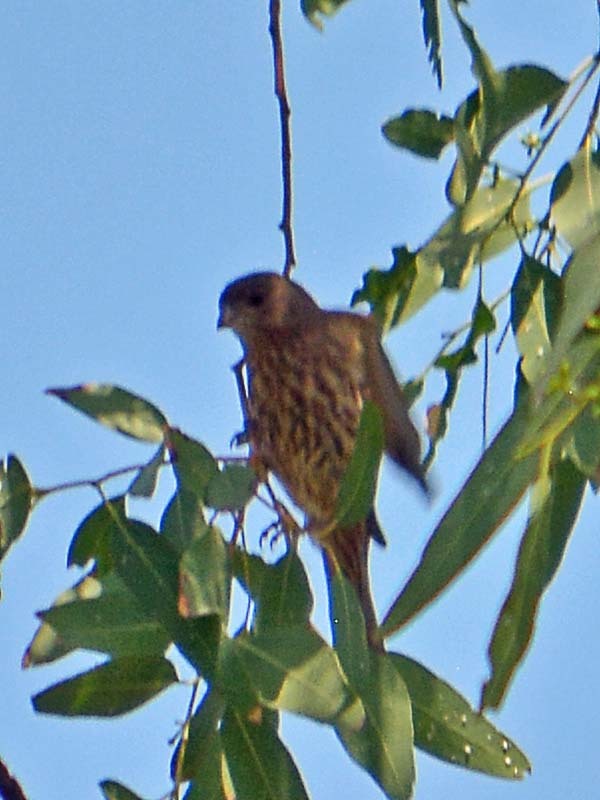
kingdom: Animalia
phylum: Chordata
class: Aves
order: Passeriformes
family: Fringillidae
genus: Haemorhous
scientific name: Haemorhous mexicanus
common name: House finch
